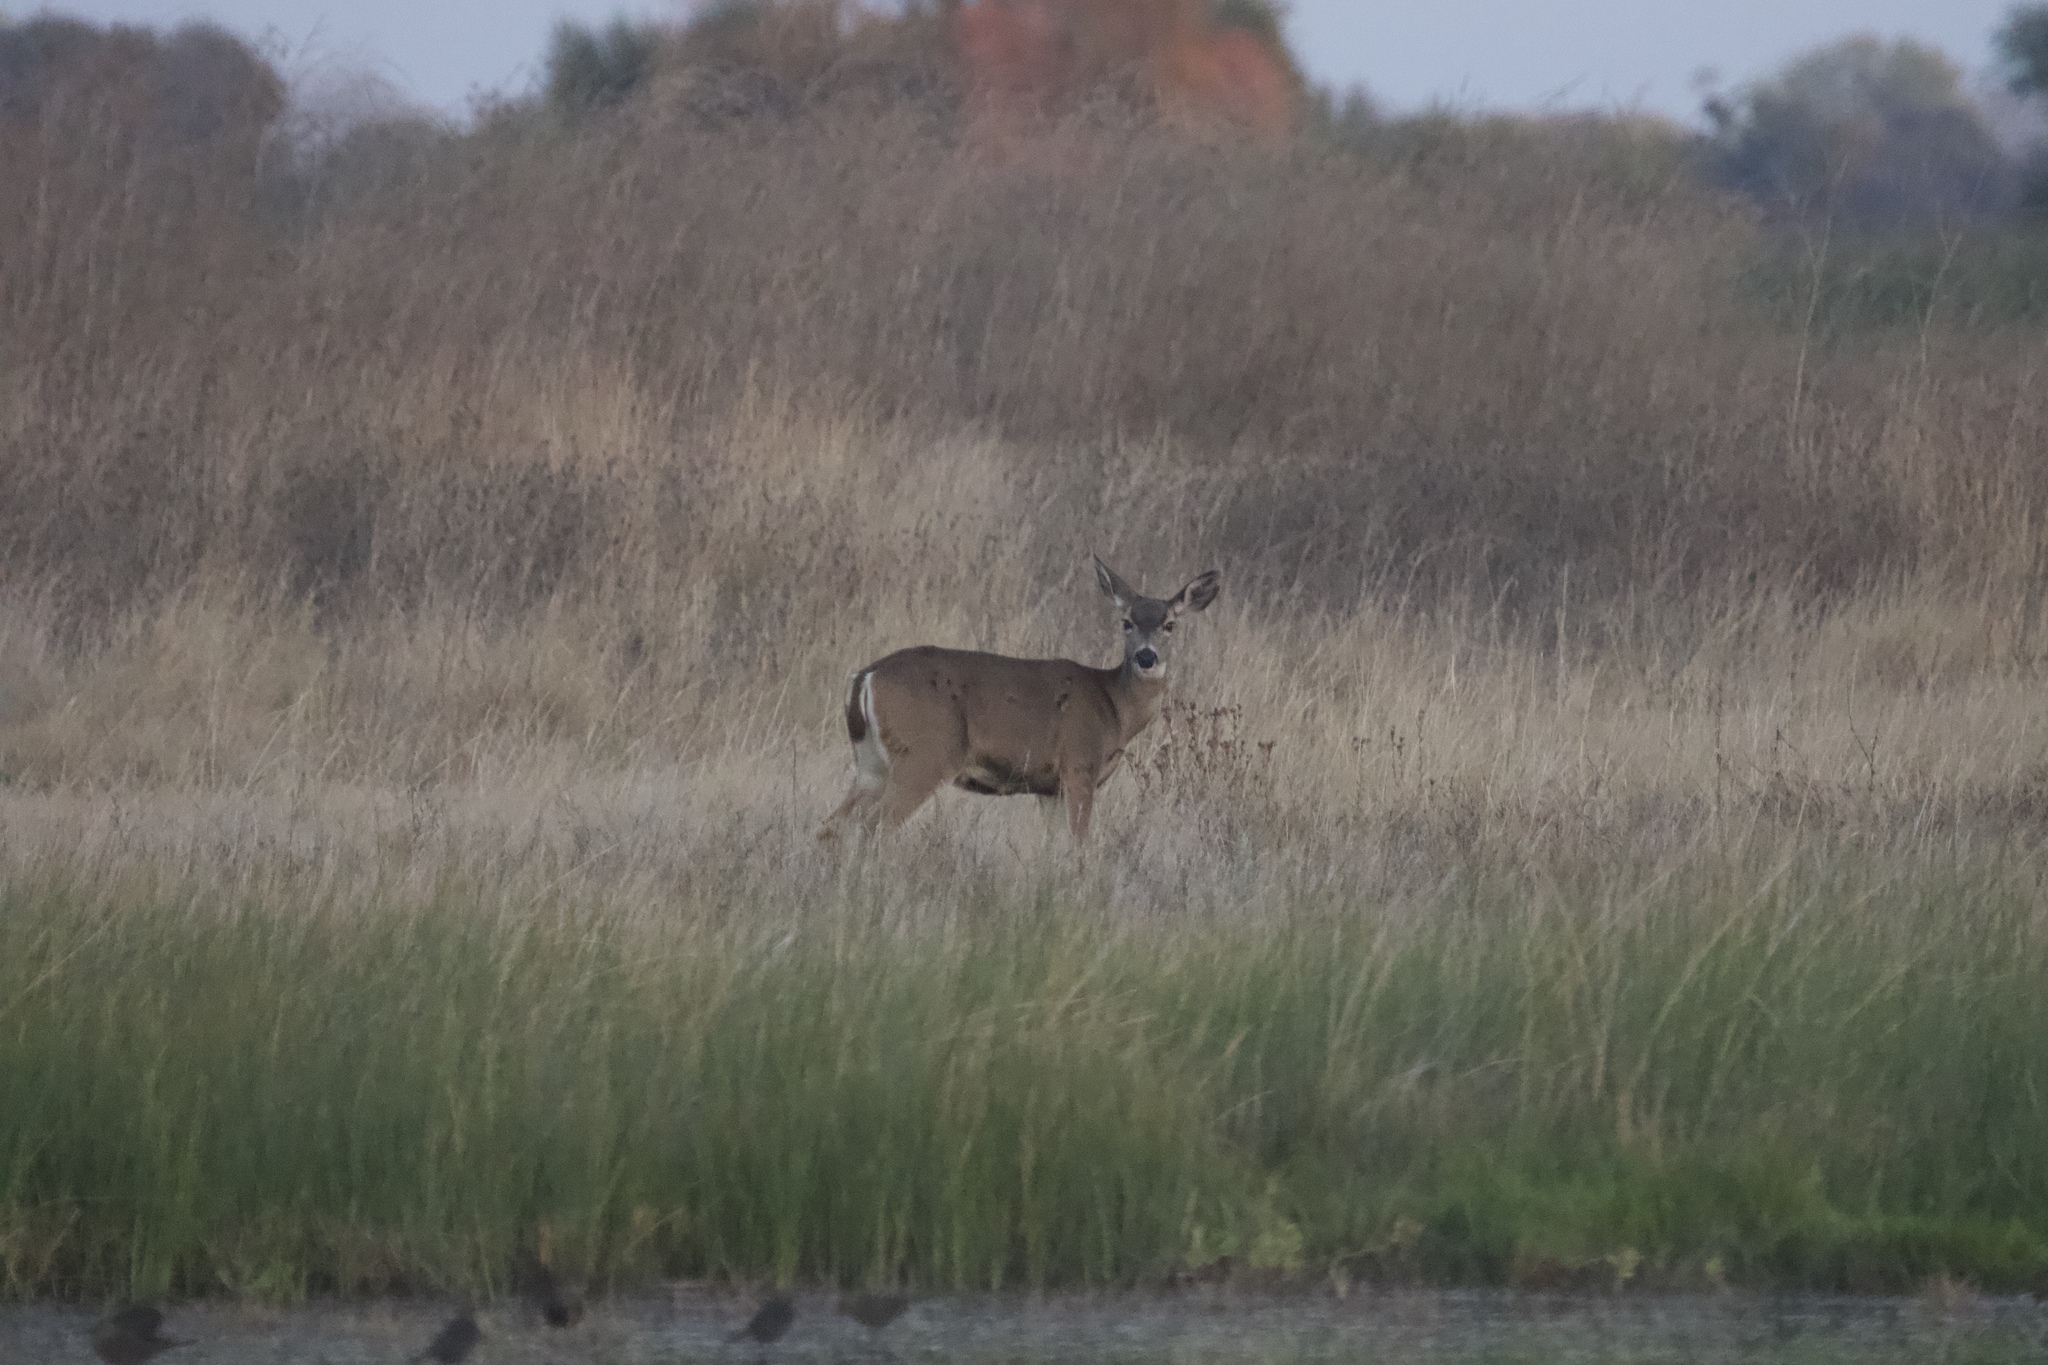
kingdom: Animalia
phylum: Chordata
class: Mammalia
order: Artiodactyla
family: Cervidae
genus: Odocoileus
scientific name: Odocoileus hemionus
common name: Mule deer
